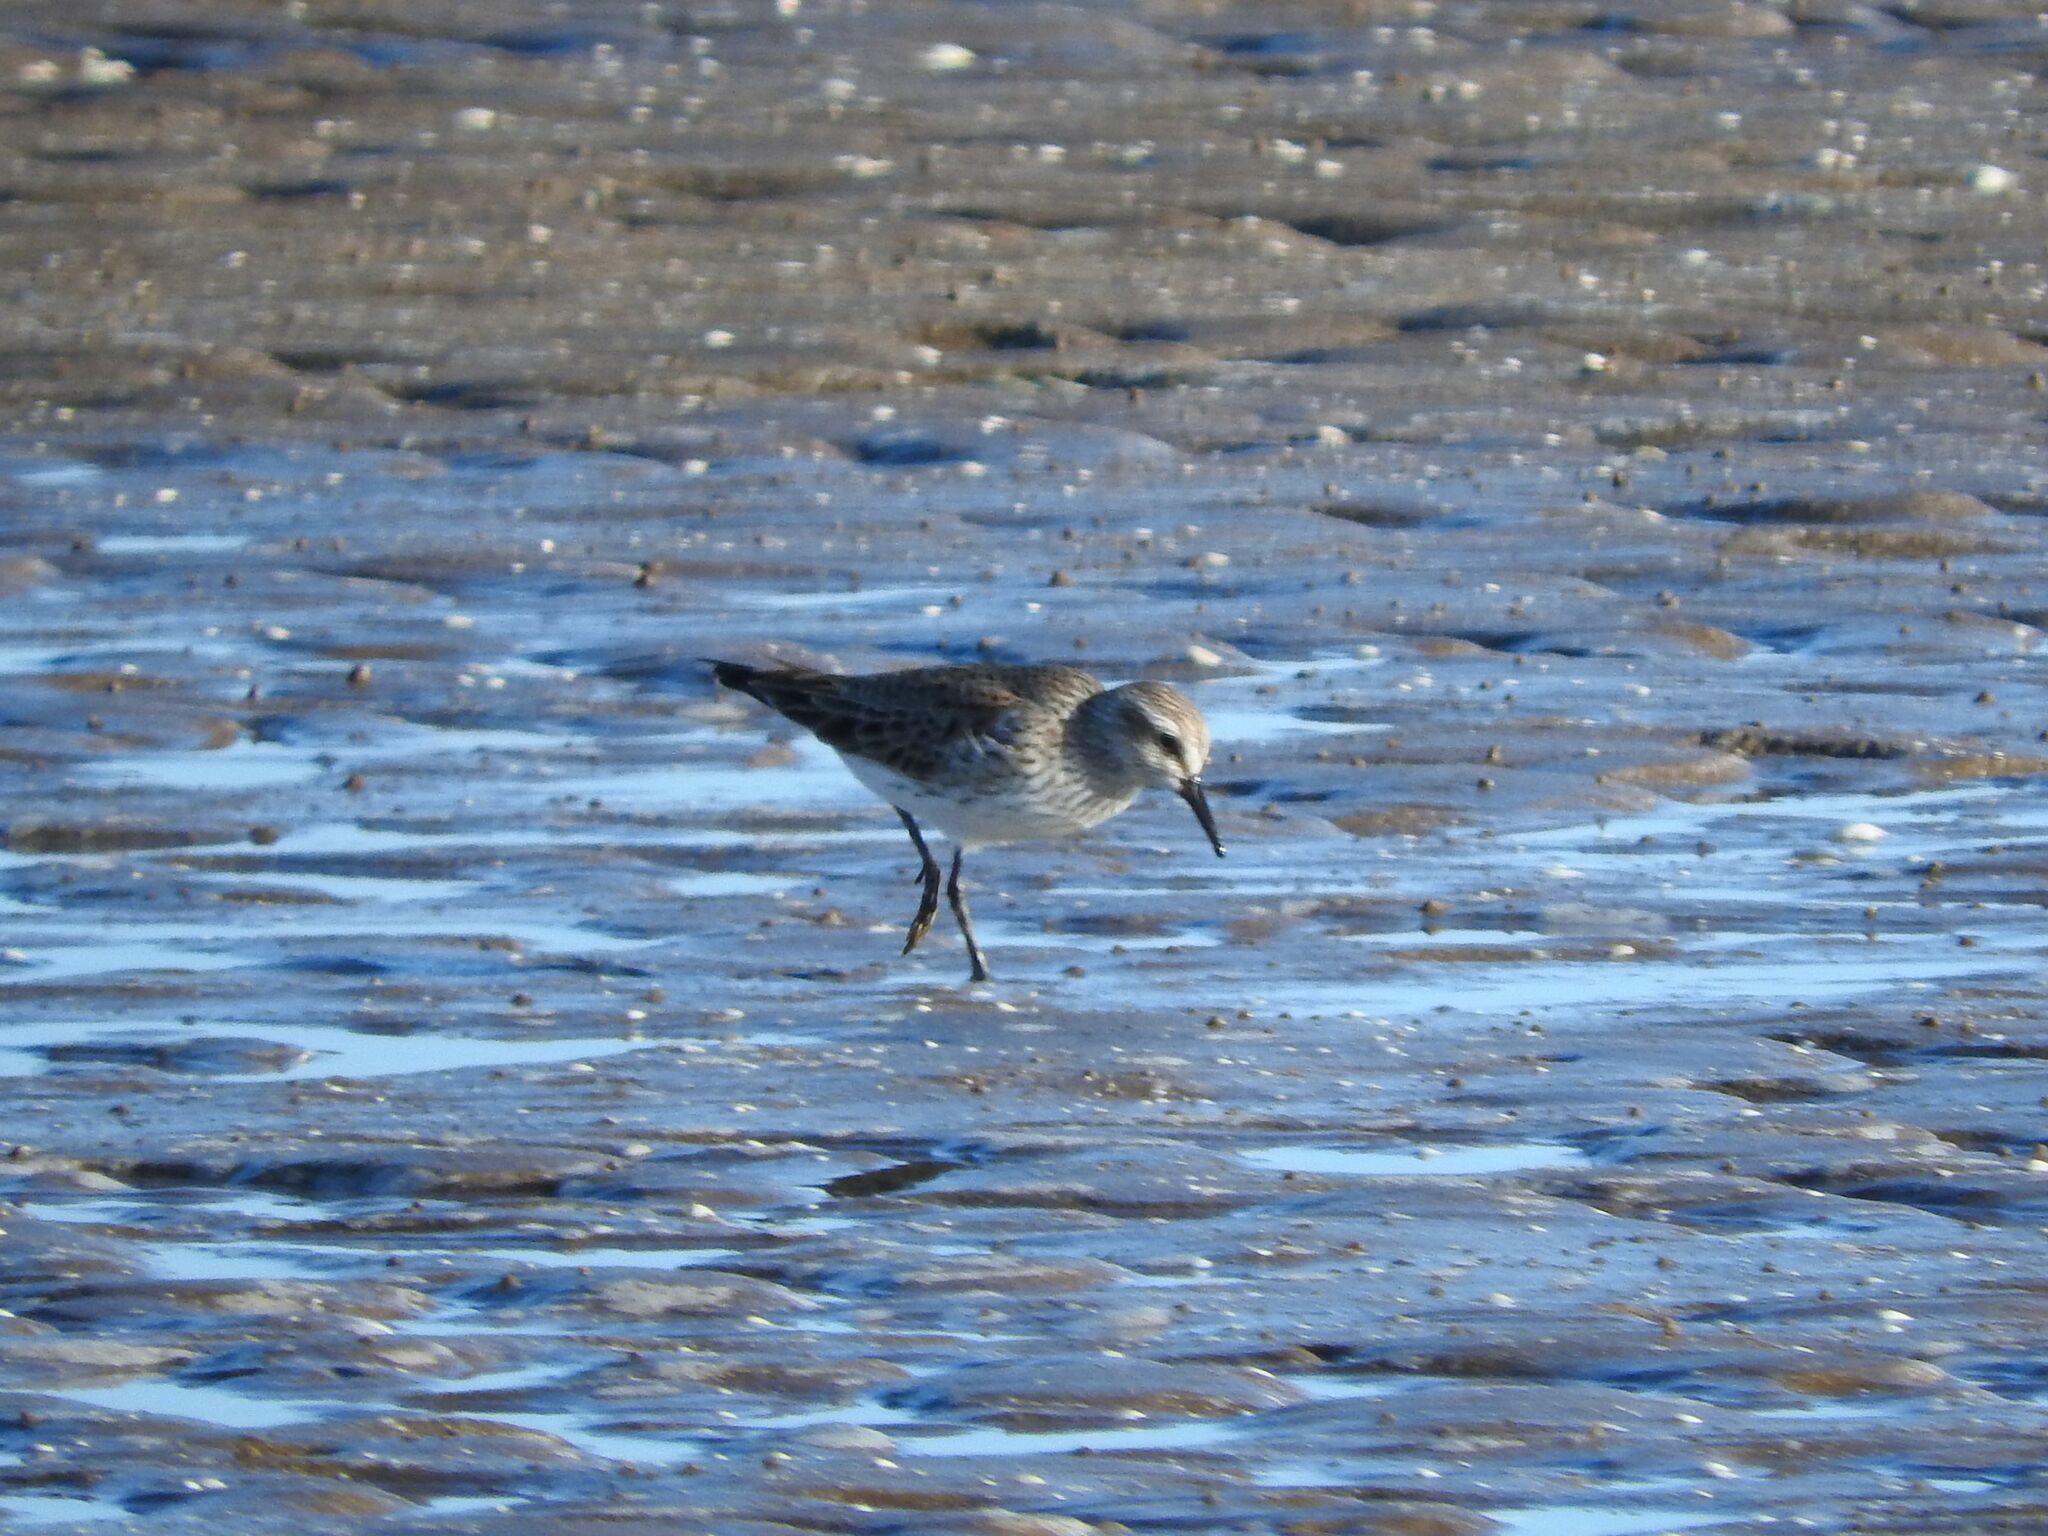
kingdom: Animalia
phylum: Chordata
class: Aves
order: Charadriiformes
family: Scolopacidae
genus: Calidris
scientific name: Calidris fuscicollis
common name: White-rumped sandpiper
